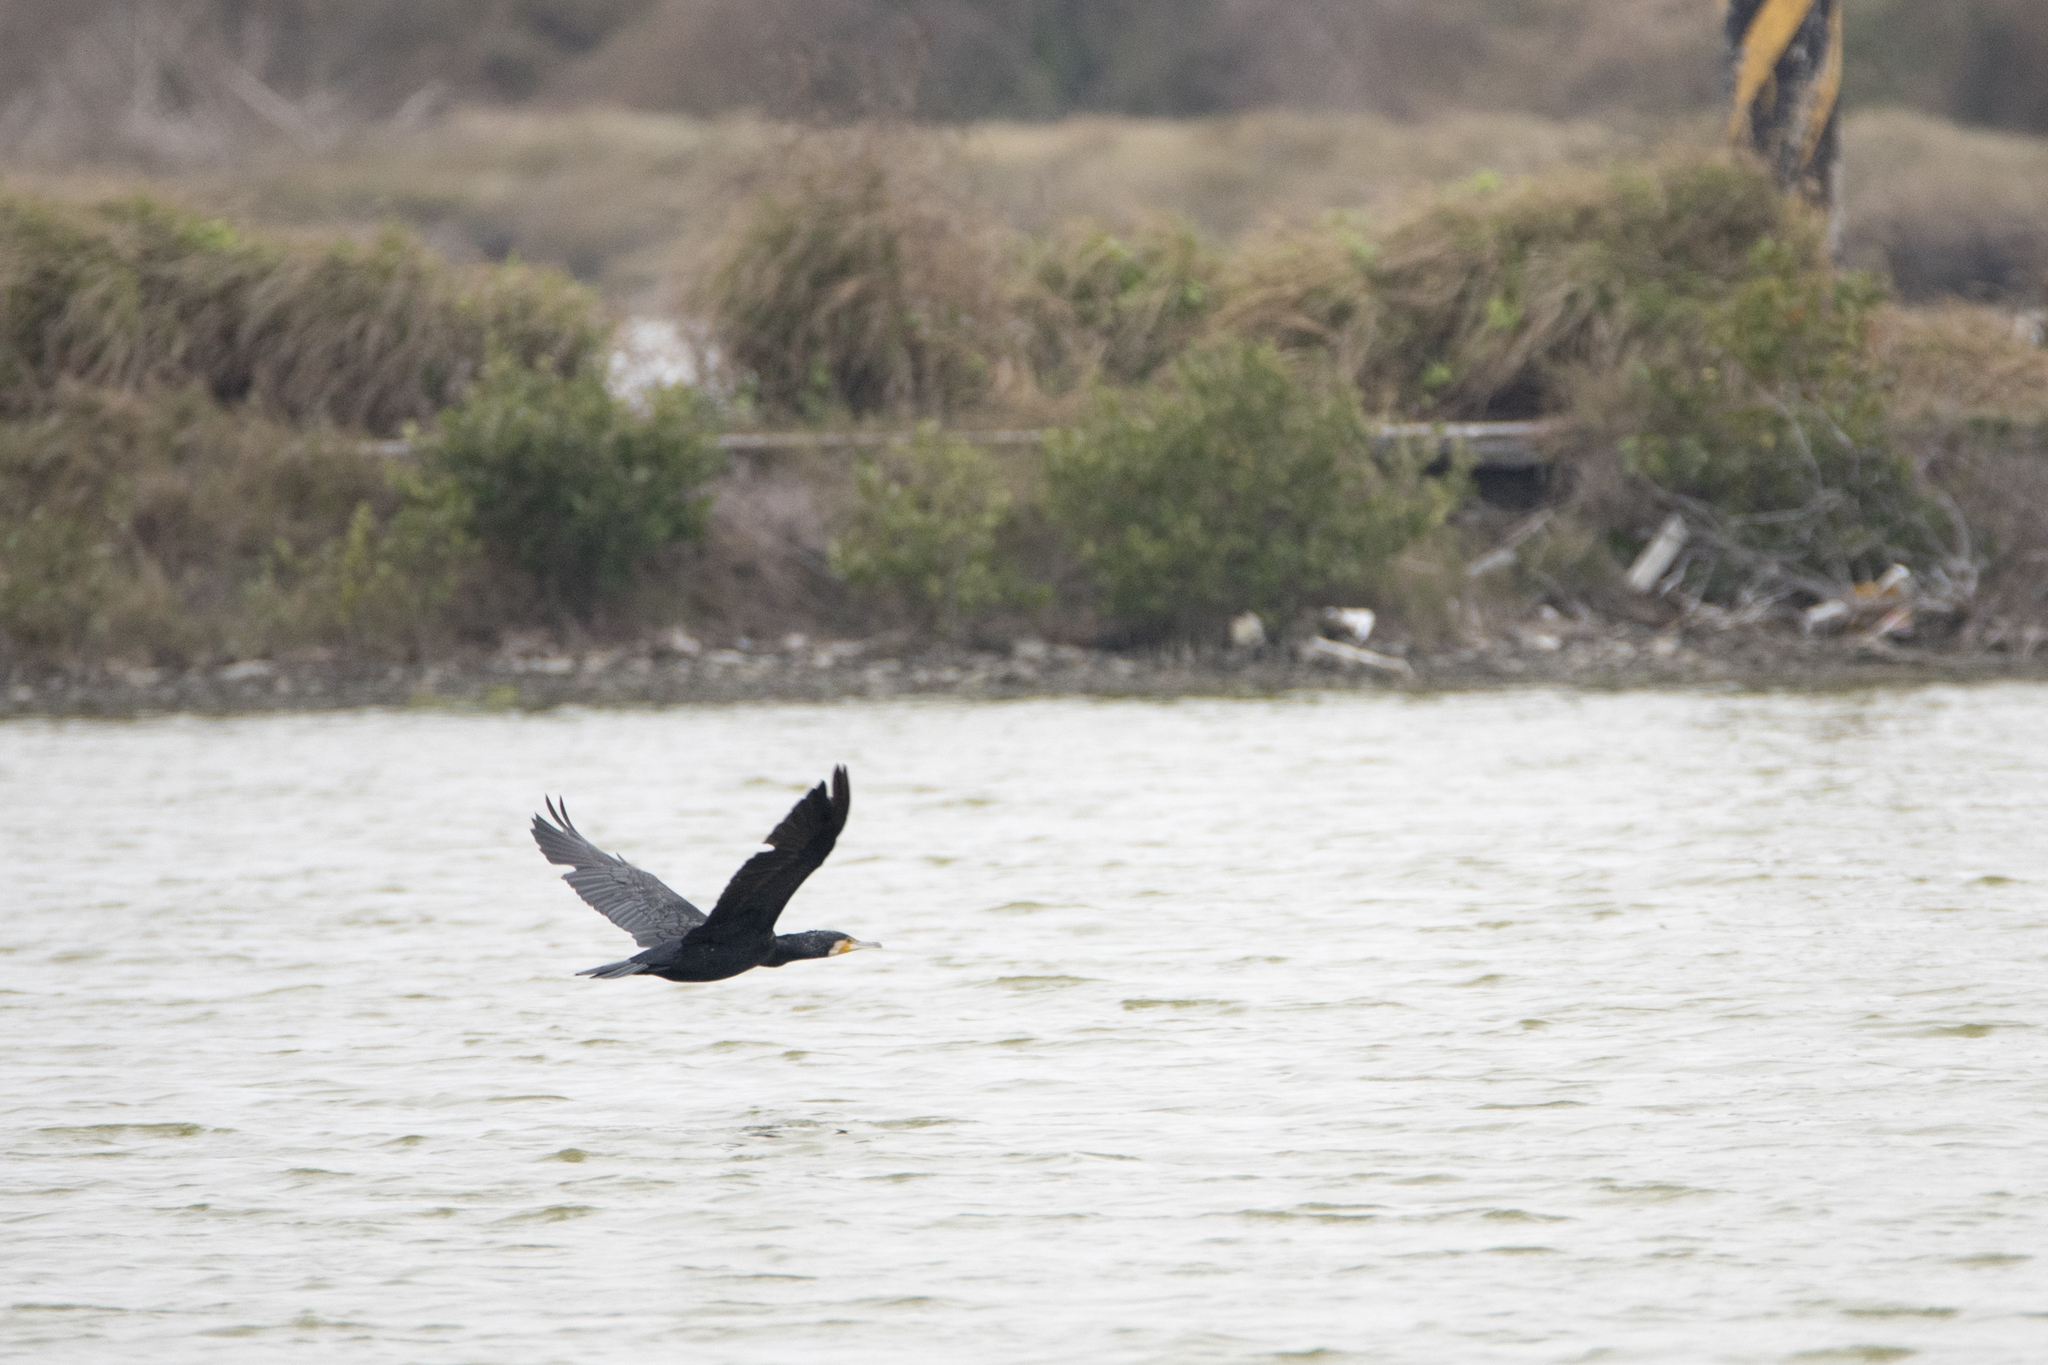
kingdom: Animalia
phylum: Chordata
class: Aves
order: Suliformes
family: Phalacrocoracidae
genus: Phalacrocorax
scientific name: Phalacrocorax carbo
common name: Great cormorant
